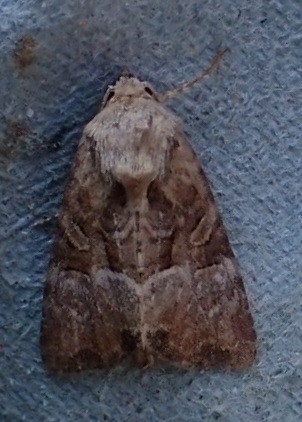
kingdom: Animalia
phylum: Arthropoda
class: Insecta
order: Lepidoptera
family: Noctuidae
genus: Mesoligia
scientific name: Mesoligia furuncula
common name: Cloaked minor
